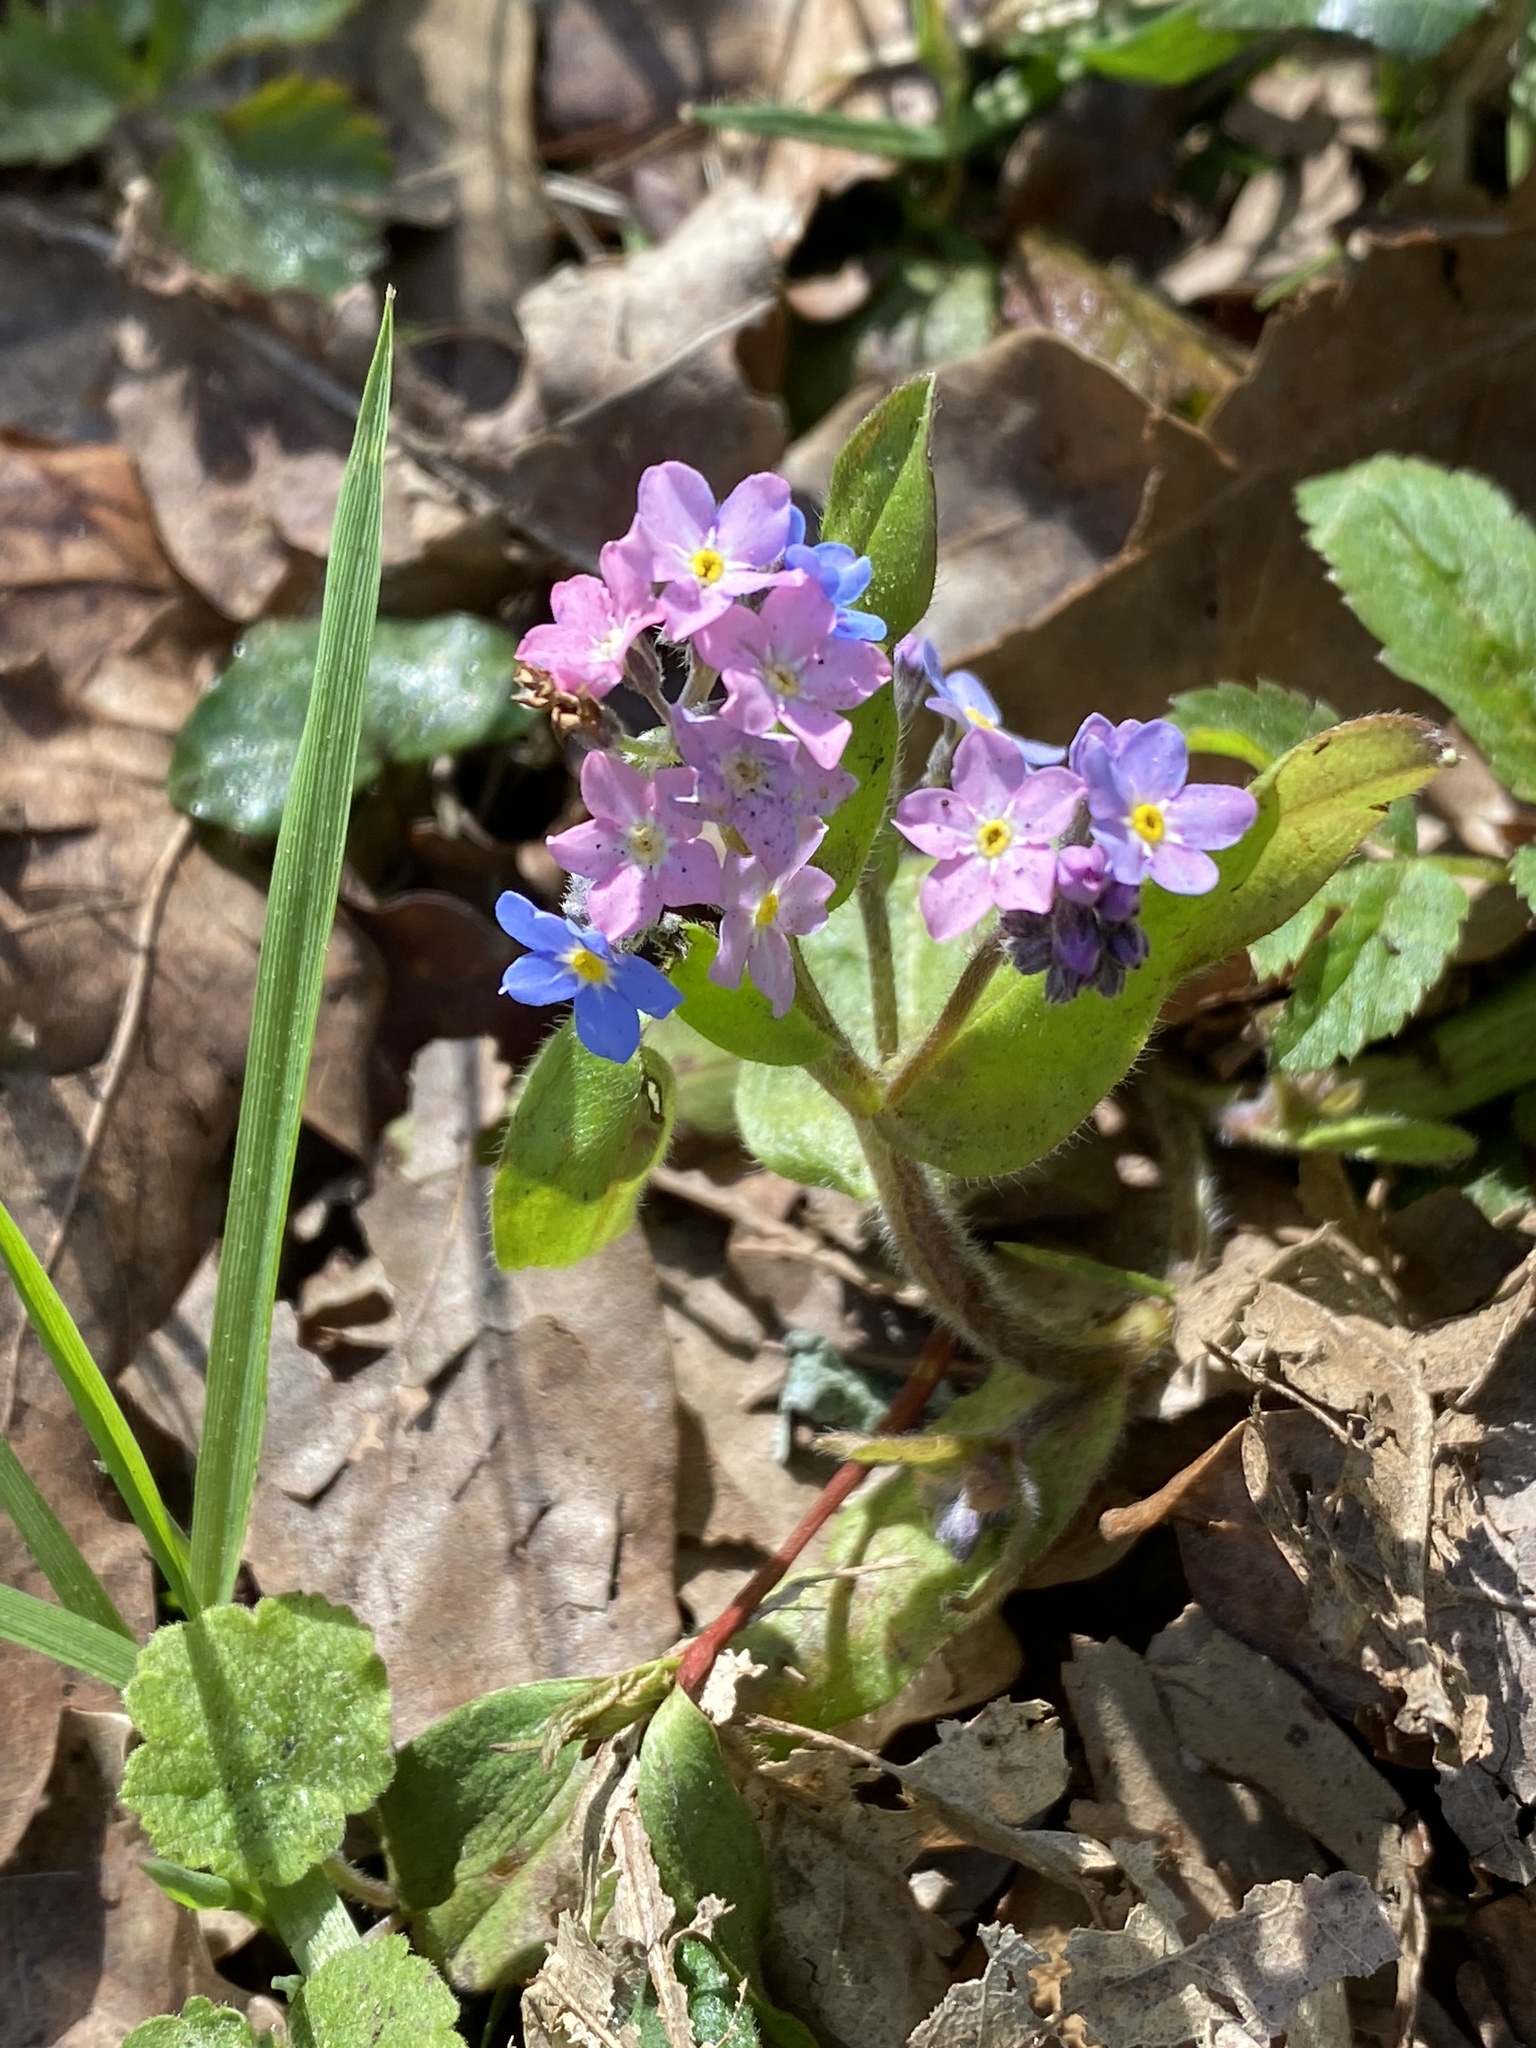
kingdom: Plantae
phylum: Tracheophyta
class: Magnoliopsida
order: Boraginales
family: Boraginaceae
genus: Myosotis
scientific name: Myosotis sylvatica
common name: Wood forget-me-not
